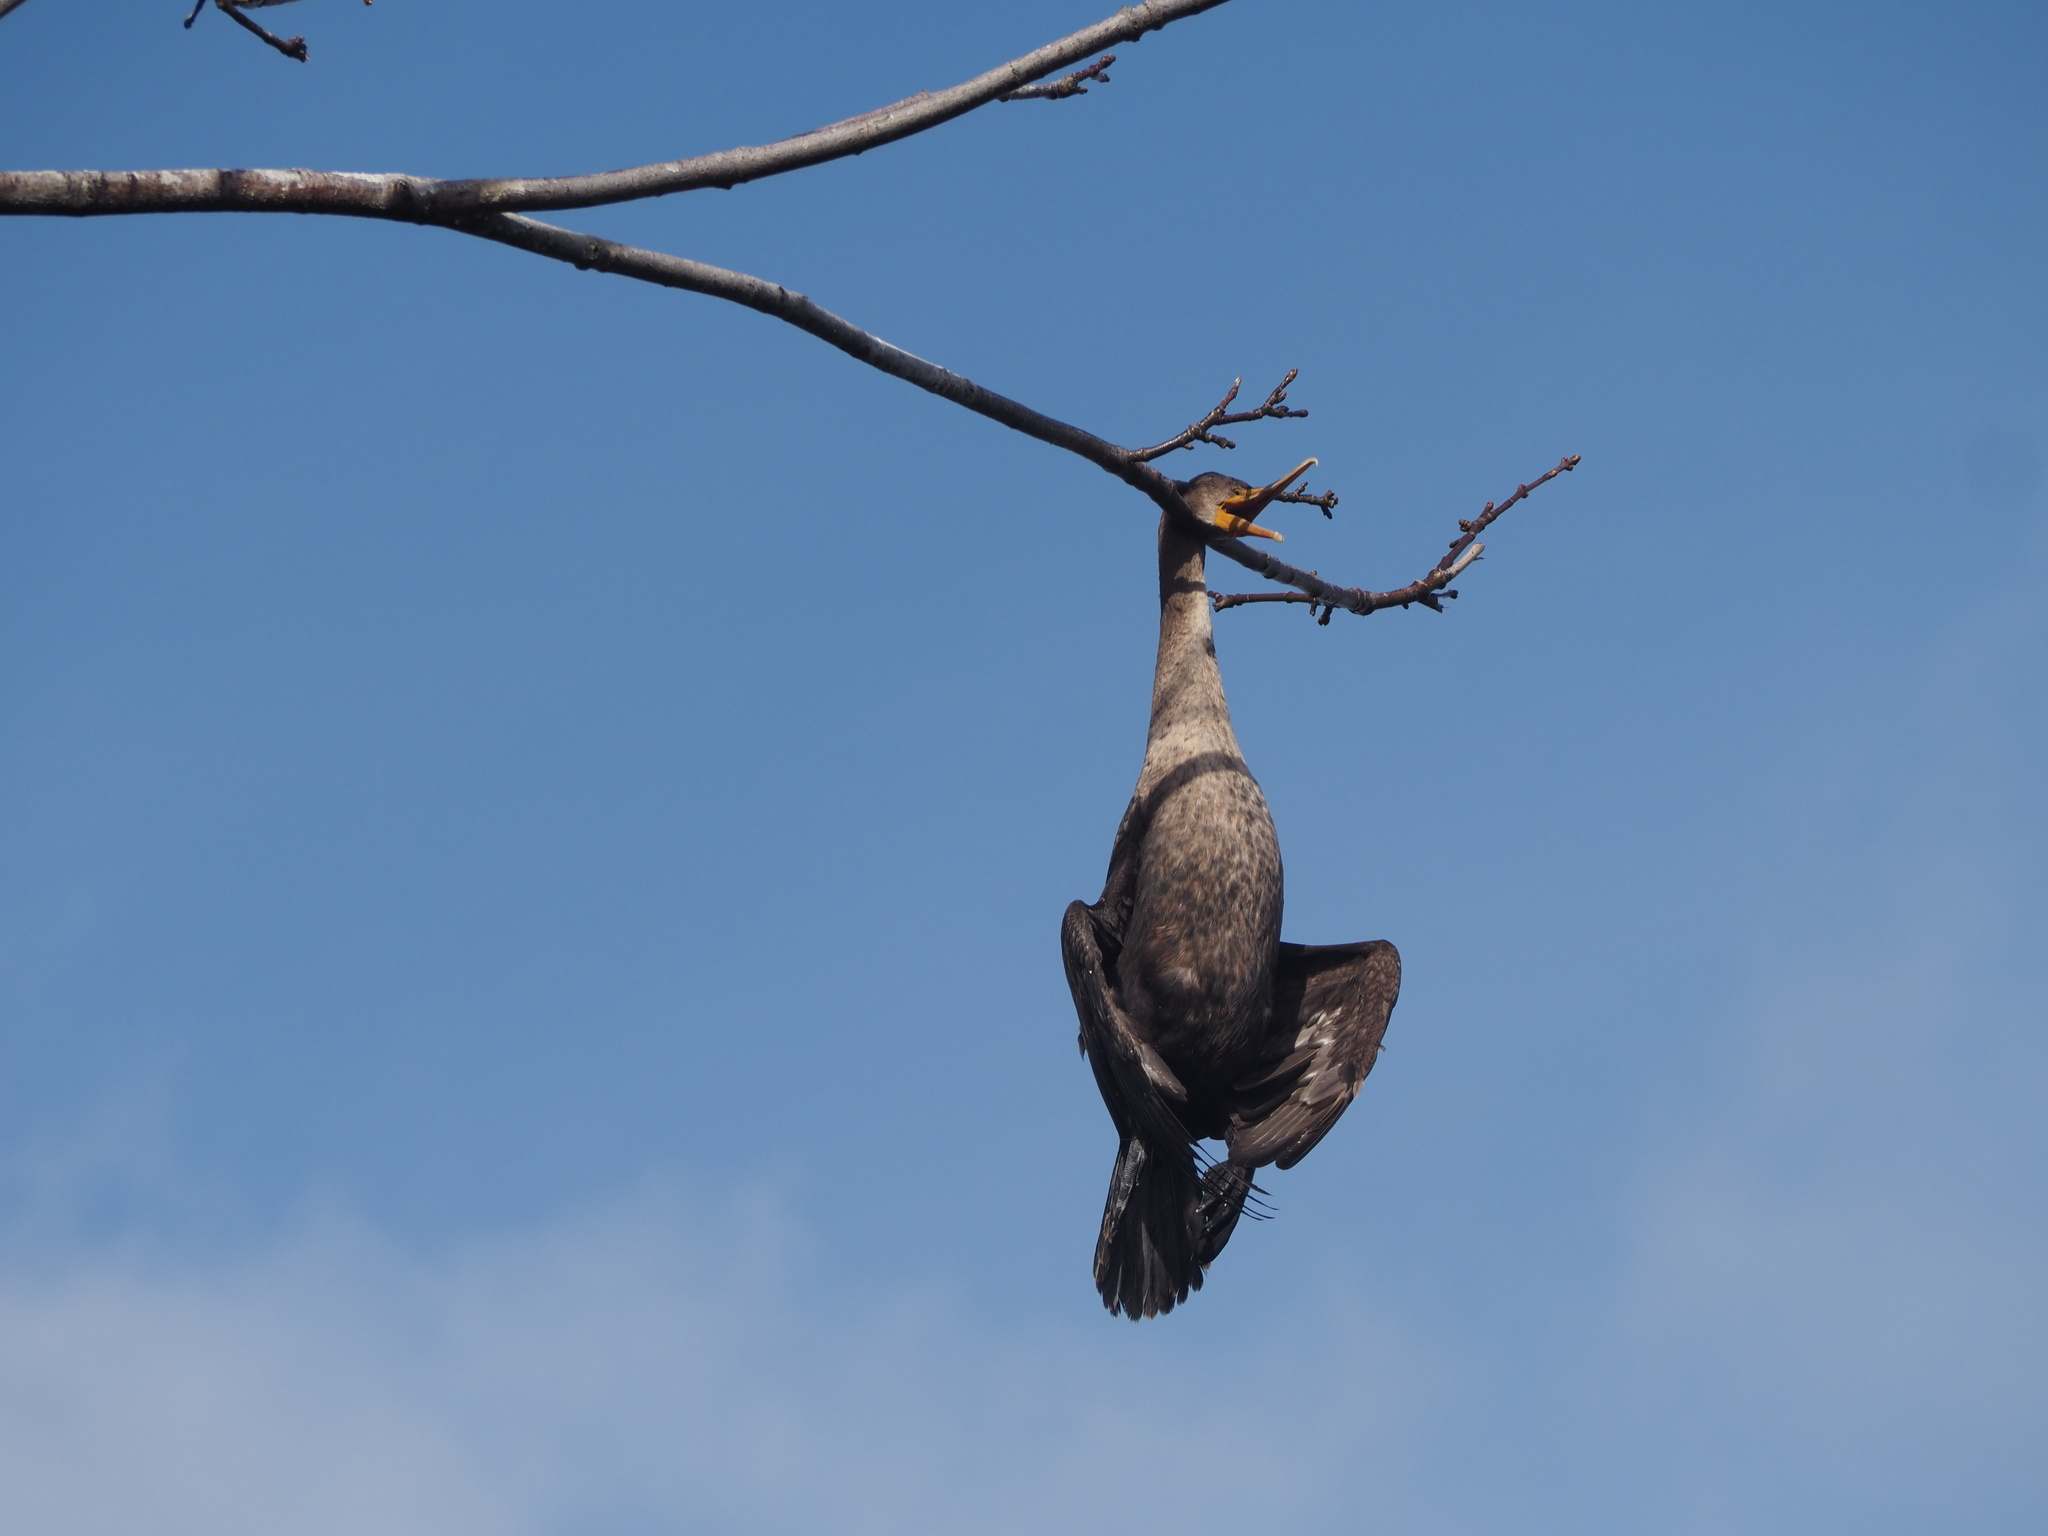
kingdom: Animalia
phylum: Chordata
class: Aves
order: Suliformes
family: Phalacrocoracidae
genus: Phalacrocorax
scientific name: Phalacrocorax auritus
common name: Double-crested cormorant
